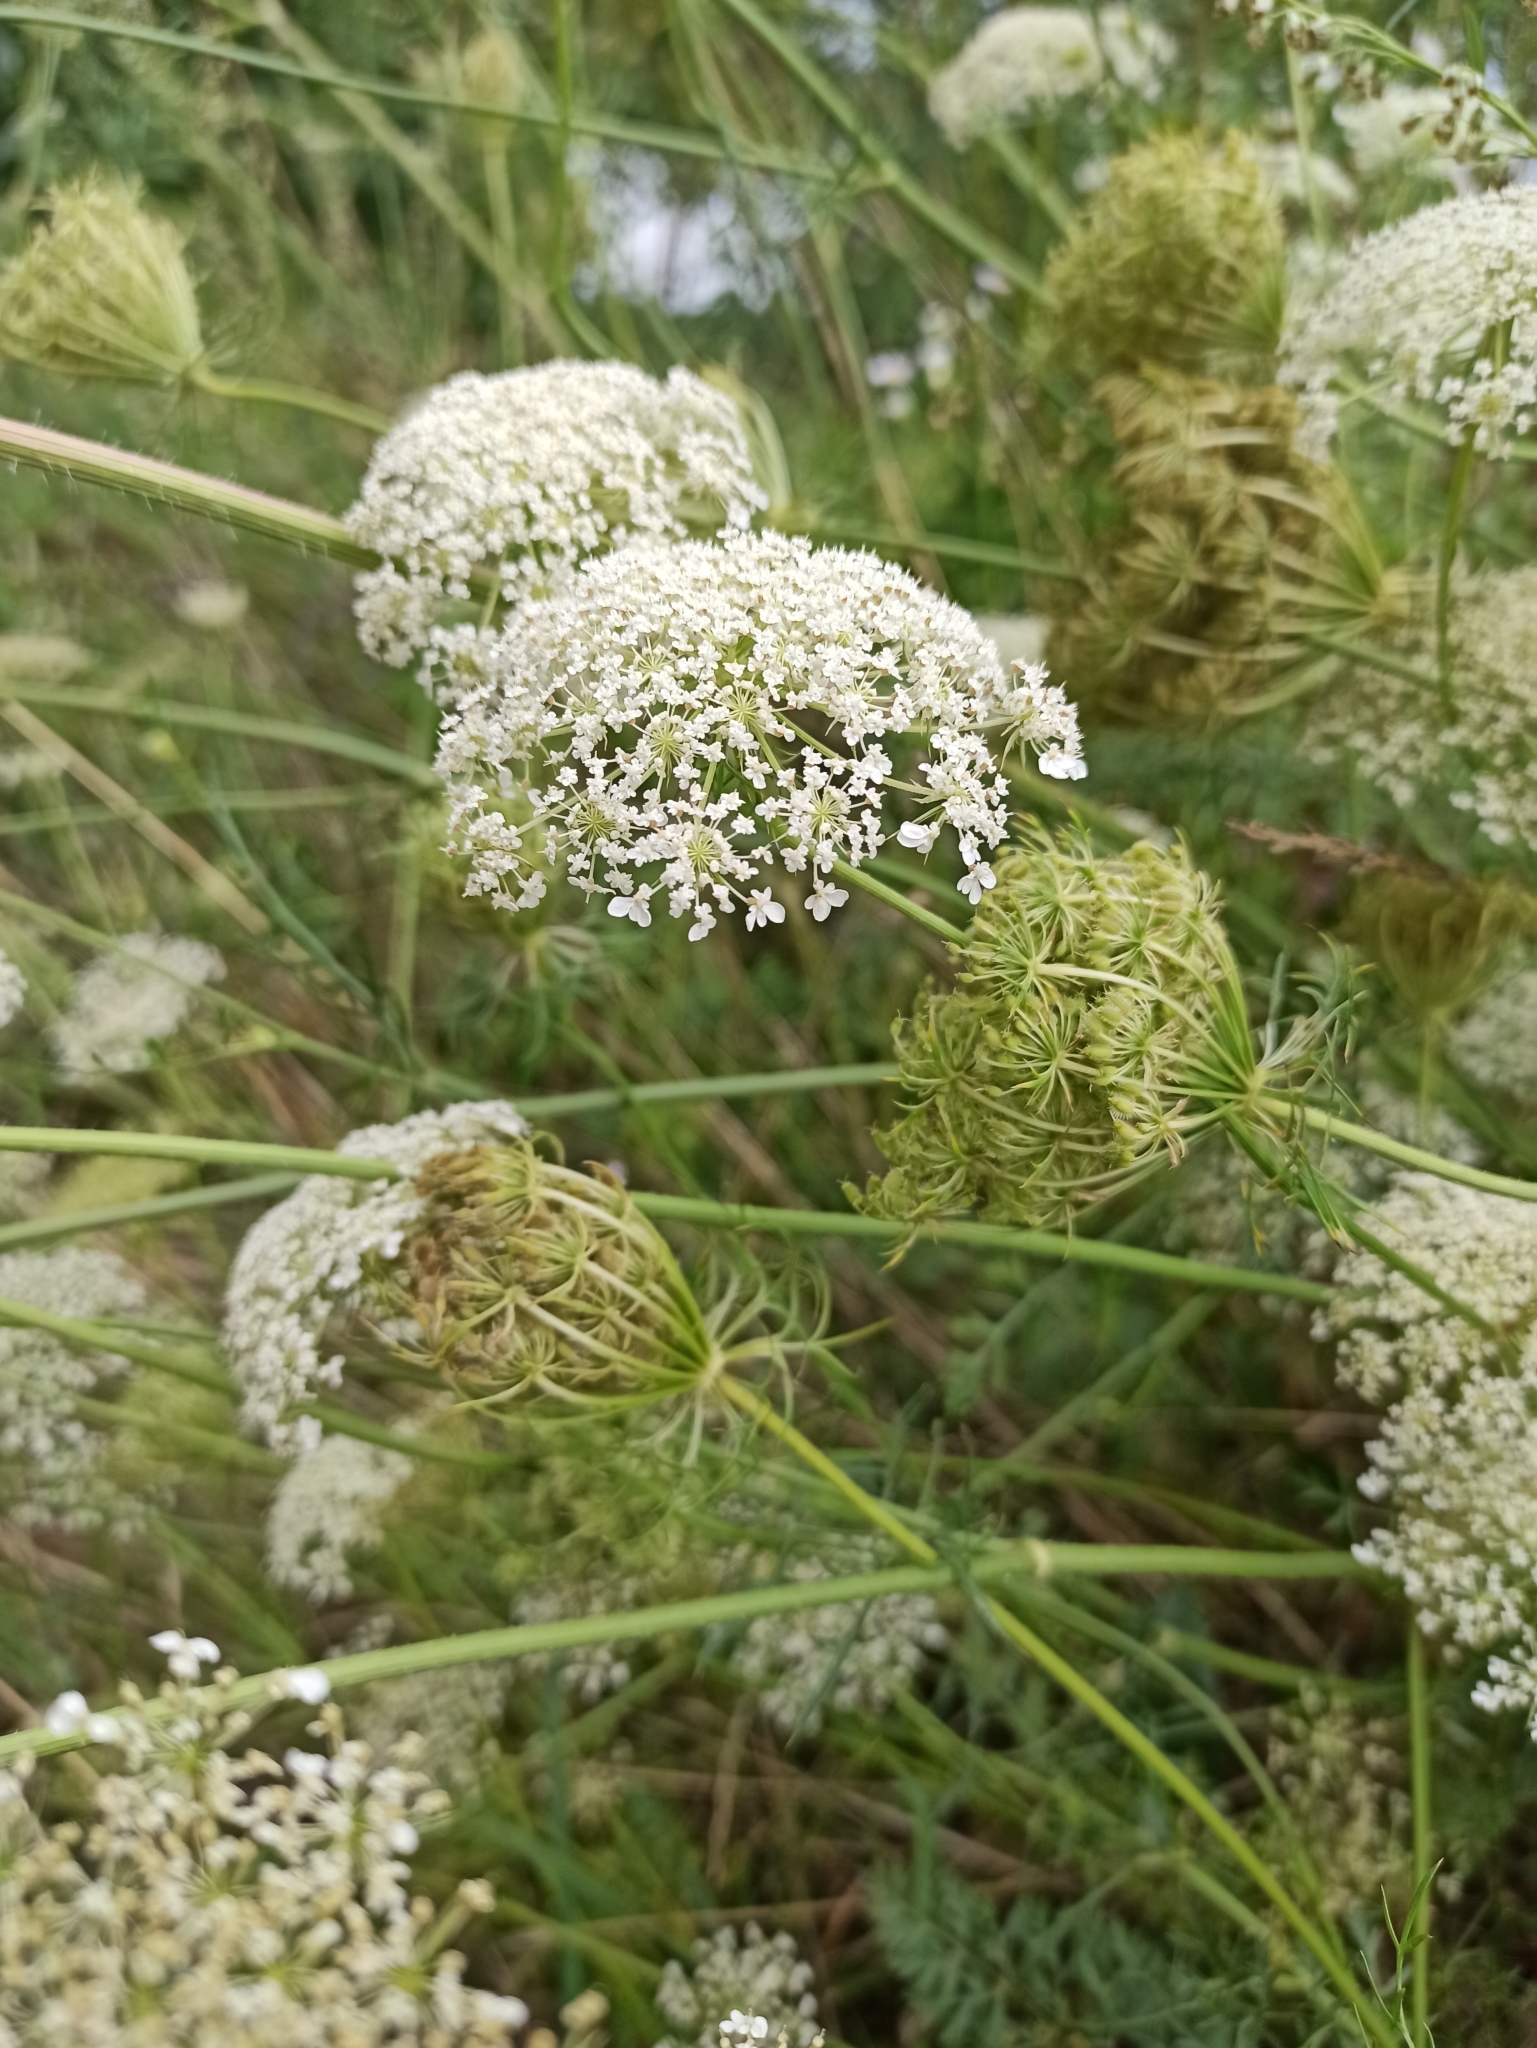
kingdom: Plantae
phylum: Tracheophyta
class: Magnoliopsida
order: Apiales
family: Apiaceae
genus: Daucus
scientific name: Daucus carota
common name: Wild carrot
